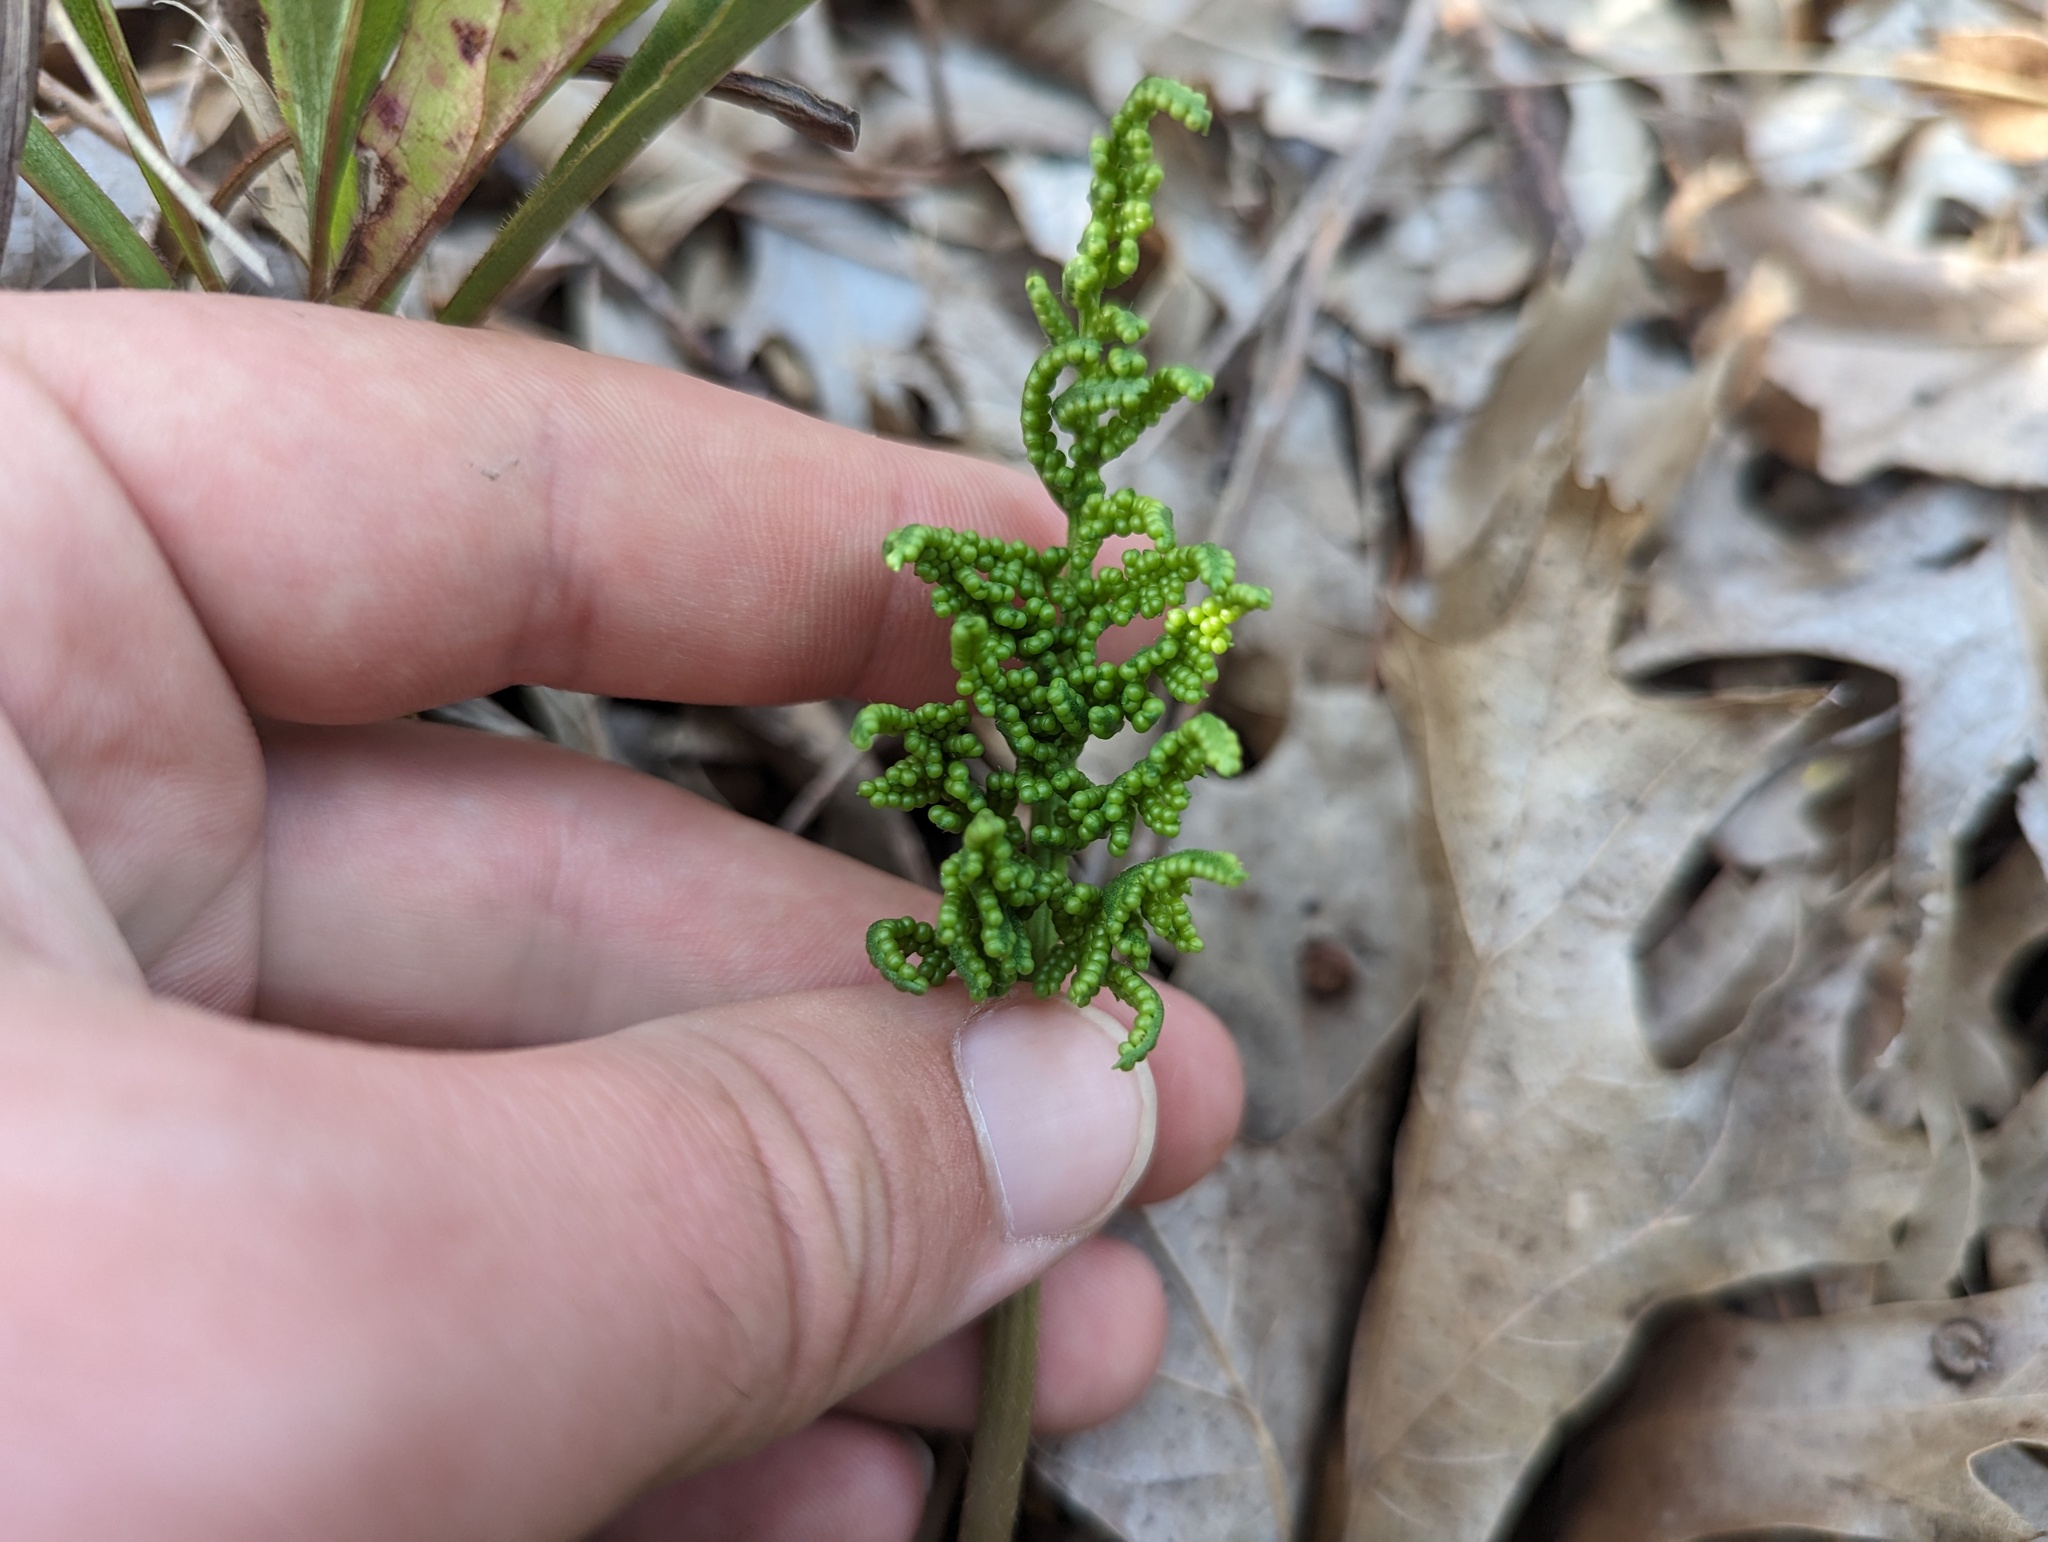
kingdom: Plantae
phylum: Tracheophyta
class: Polypodiopsida
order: Ophioglossales
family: Ophioglossaceae
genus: Sceptridium
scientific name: Sceptridium dissectum
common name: Cut-leaved grapefern
